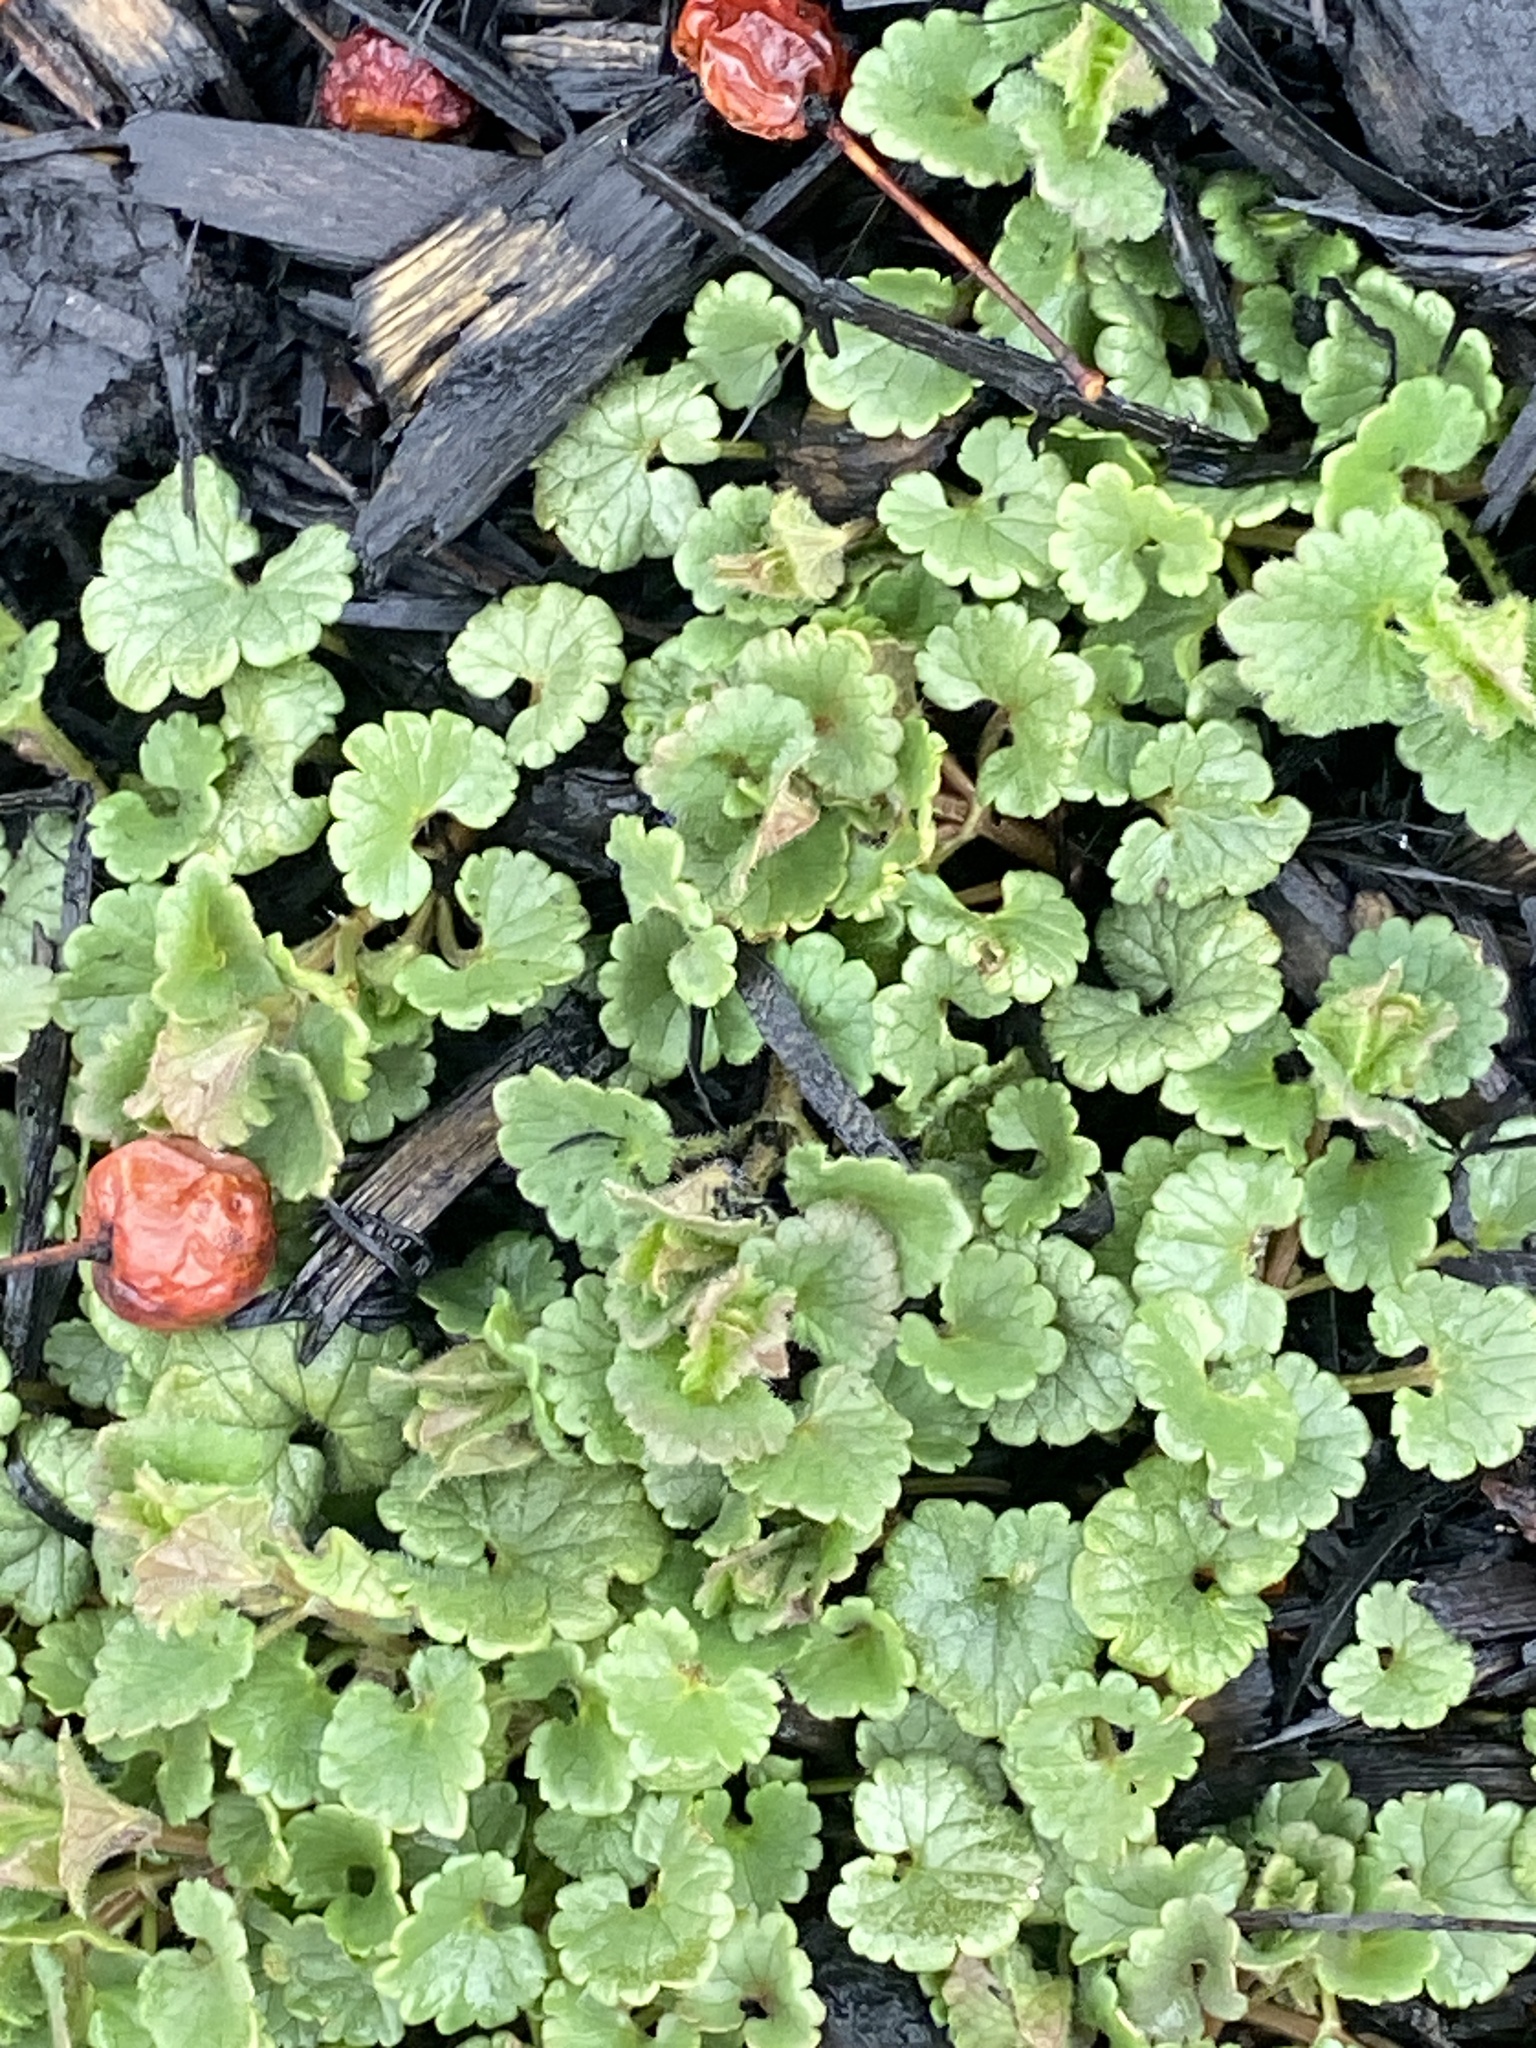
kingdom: Plantae
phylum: Tracheophyta
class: Magnoliopsida
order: Lamiales
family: Lamiaceae
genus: Glechoma
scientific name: Glechoma hederacea
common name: Ground ivy
